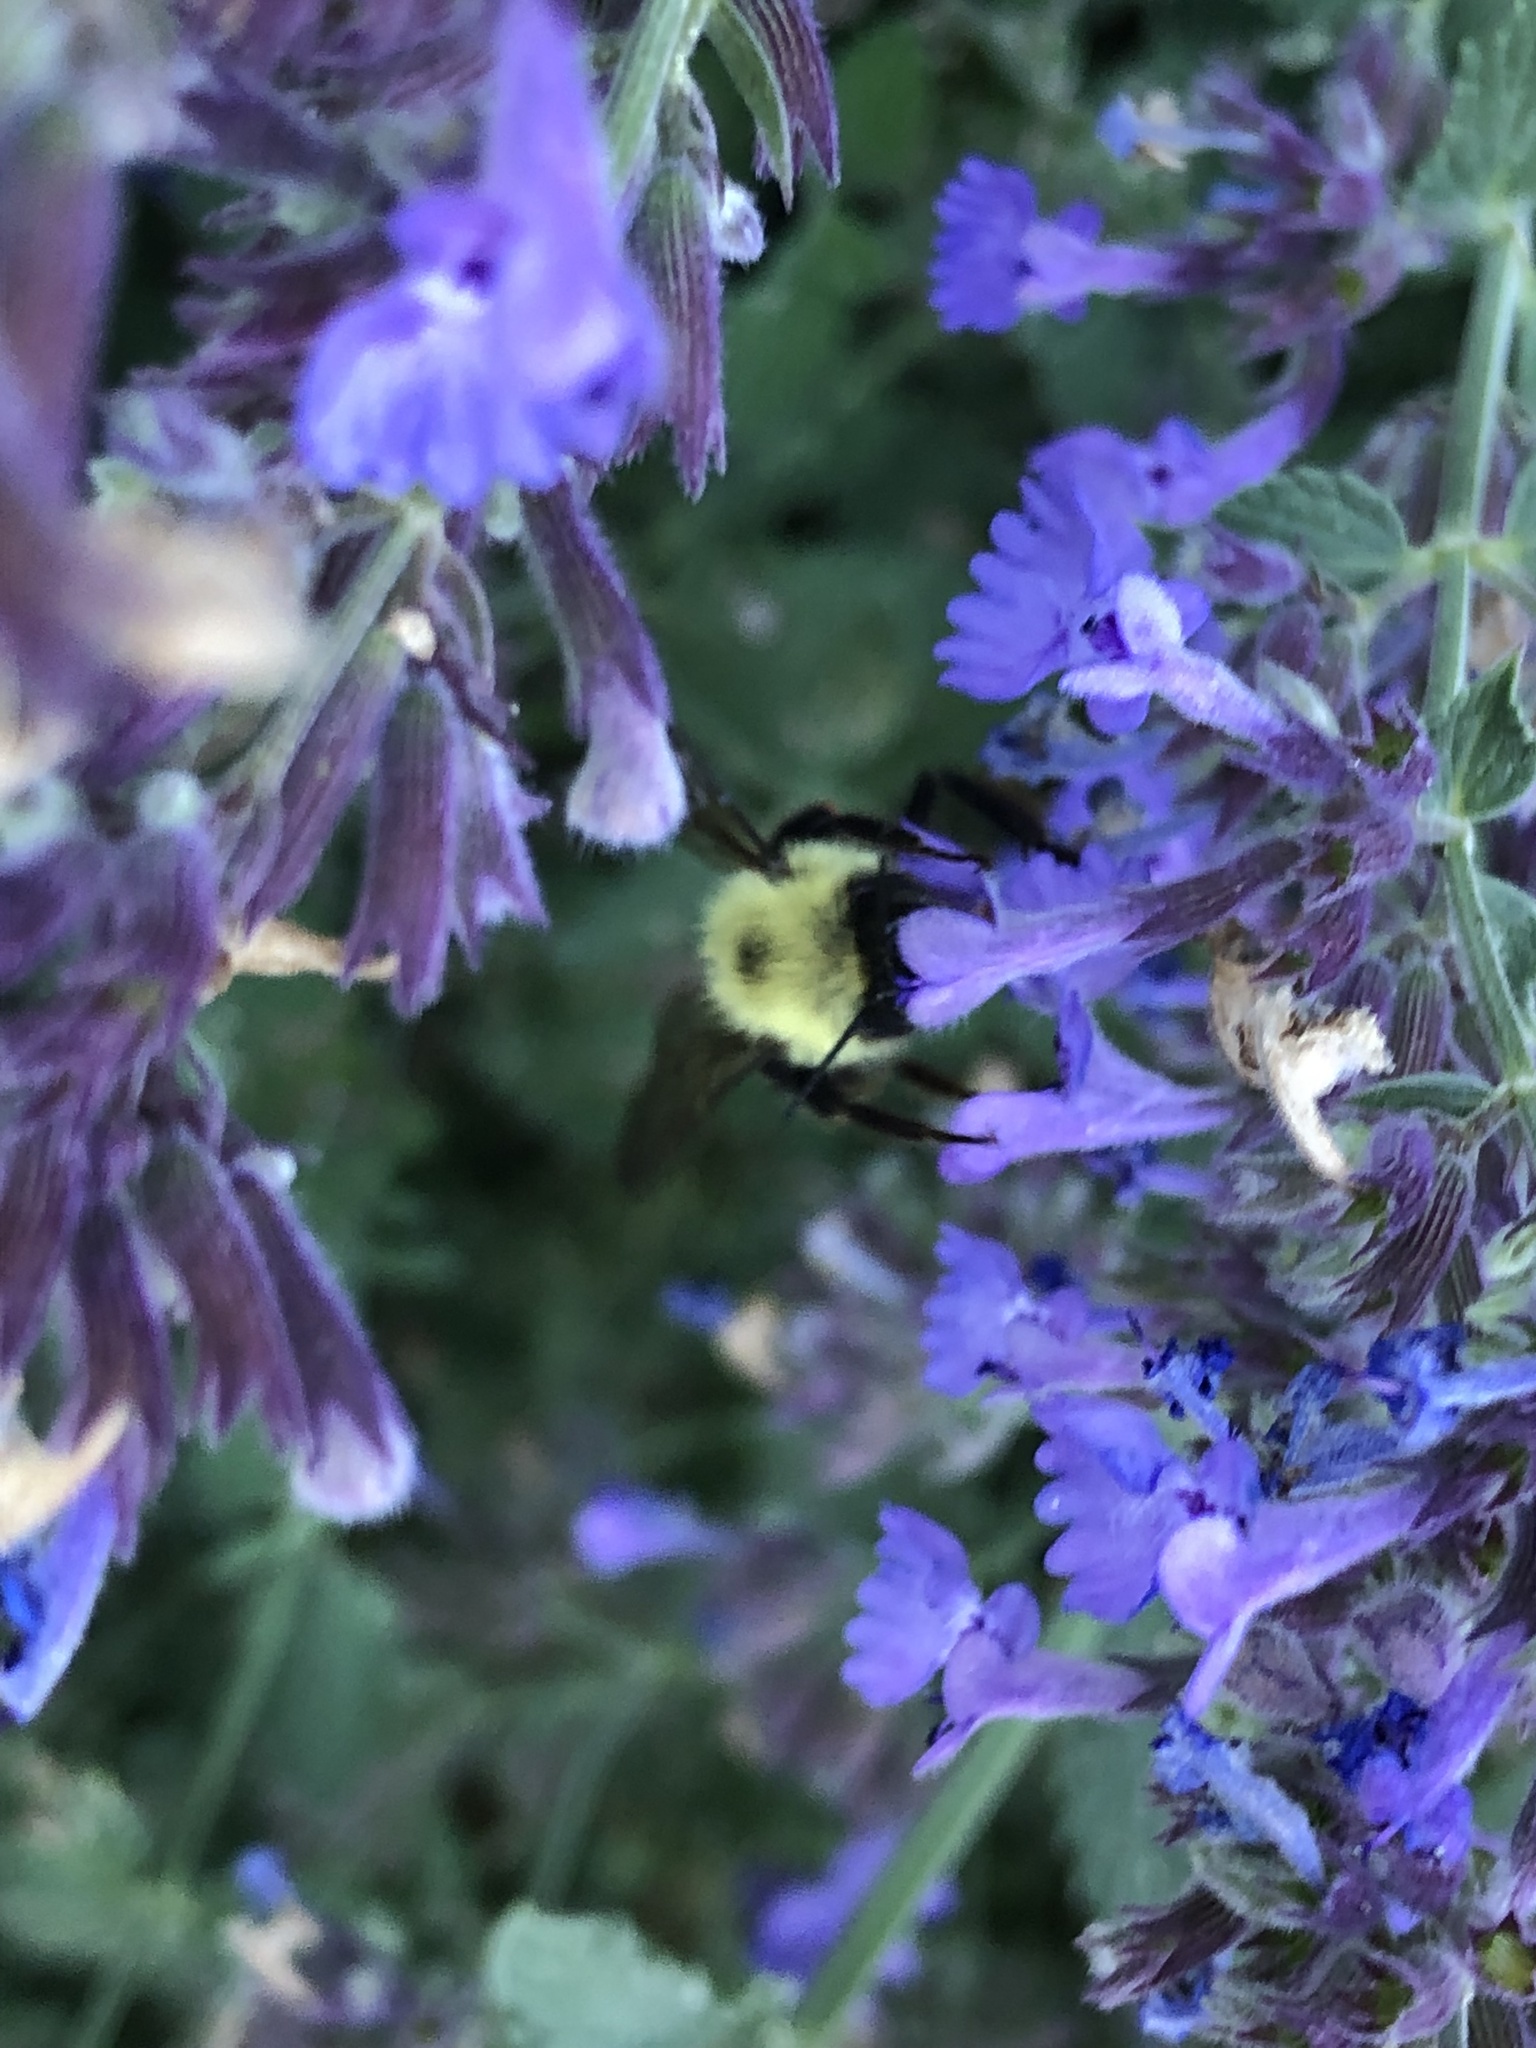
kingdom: Animalia
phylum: Arthropoda
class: Insecta
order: Hymenoptera
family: Apidae
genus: Bombus
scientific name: Bombus bimaculatus
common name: Two-spotted bumble bee
